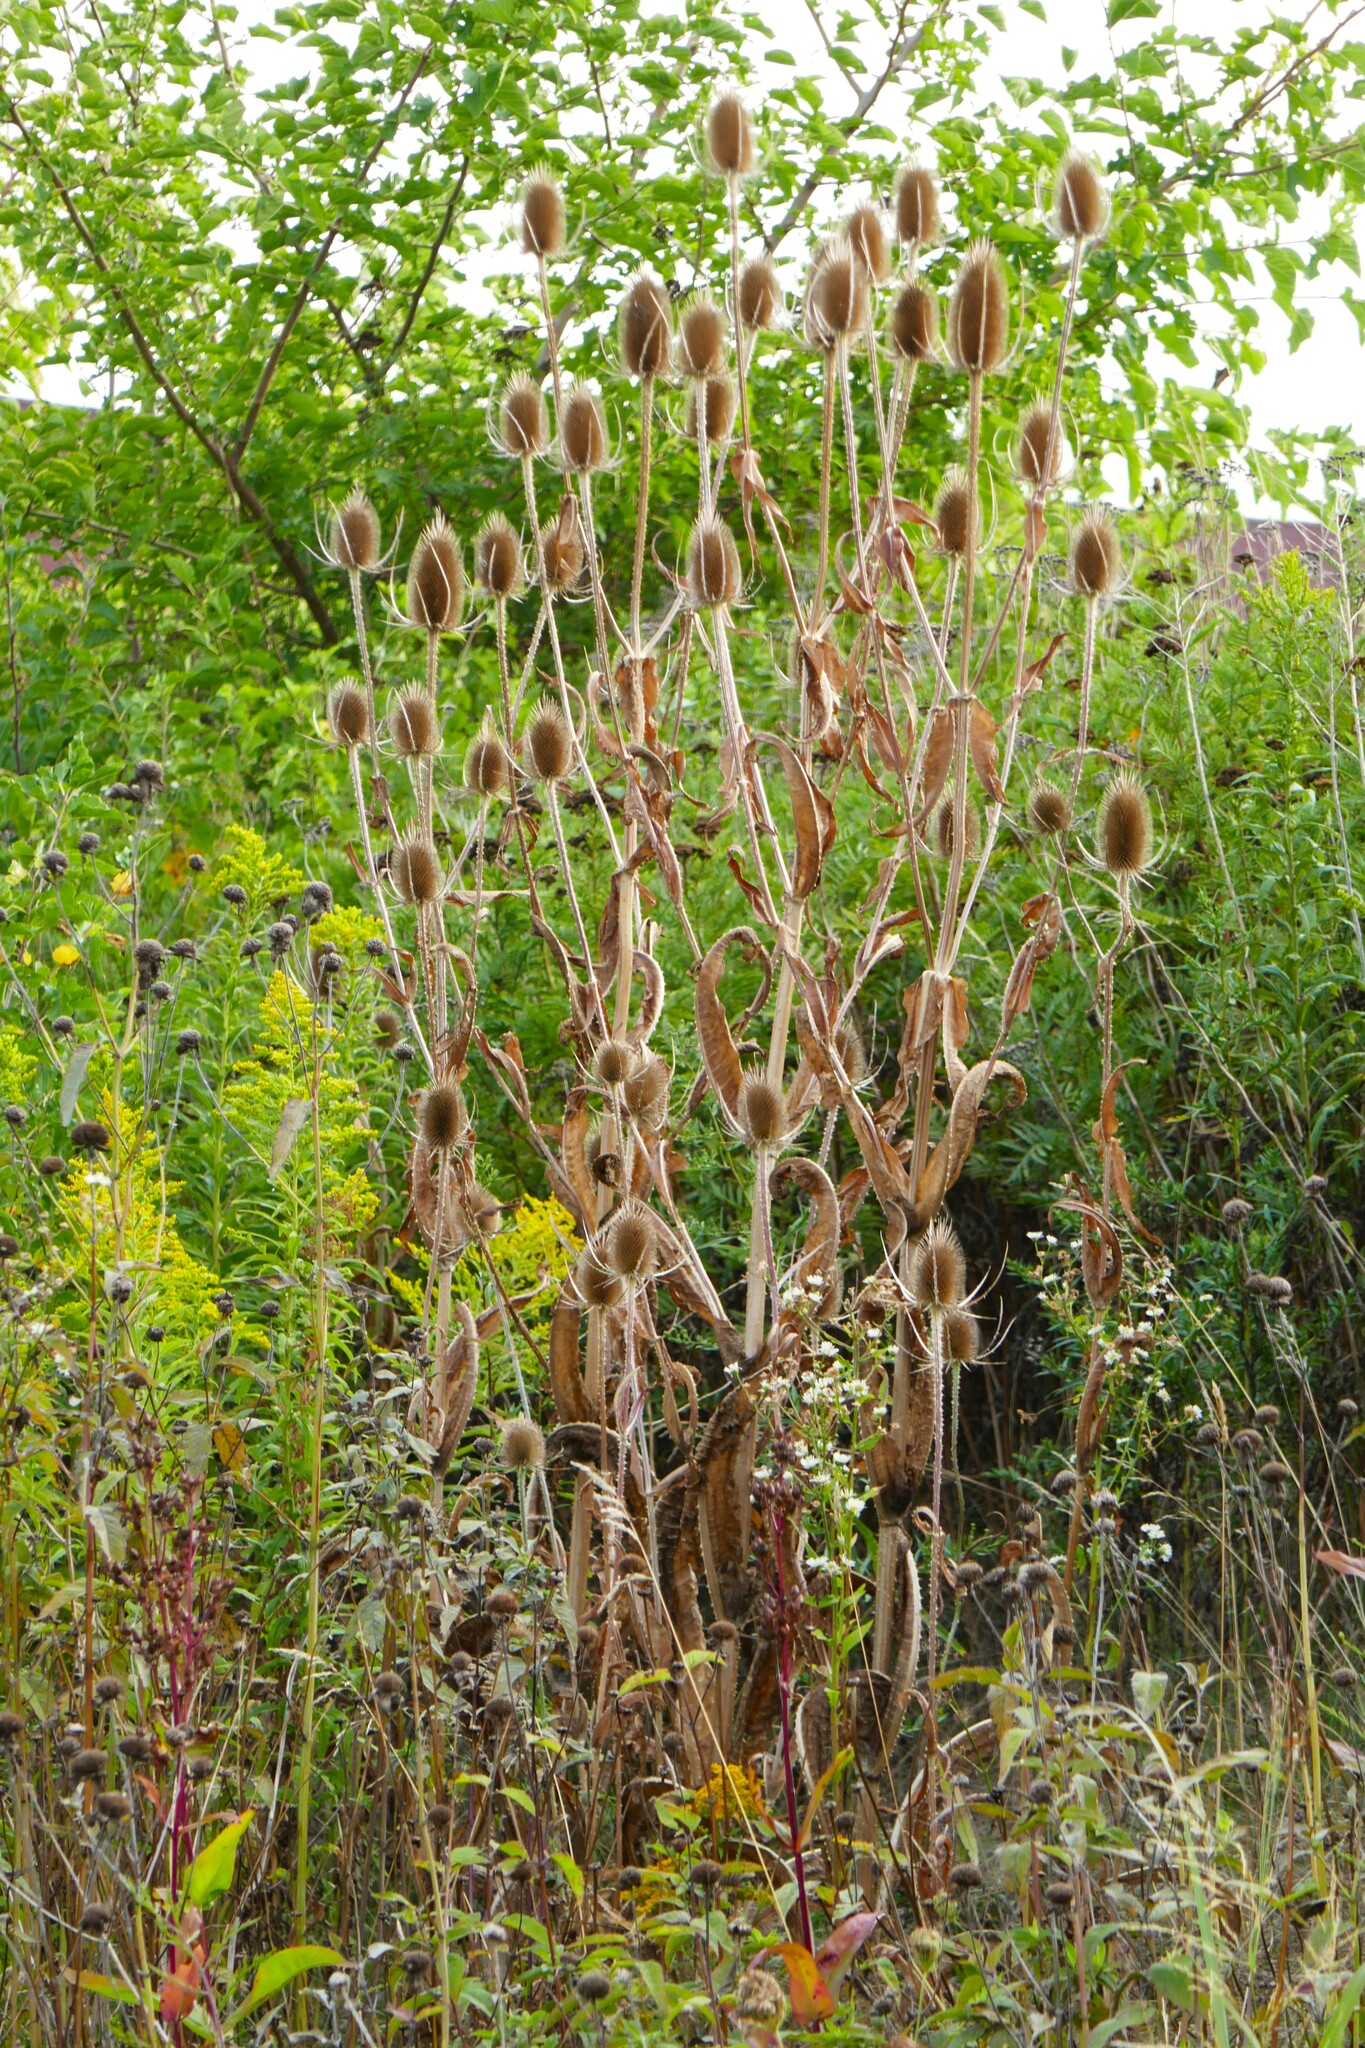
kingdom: Plantae
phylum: Tracheophyta
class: Magnoliopsida
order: Dipsacales
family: Caprifoliaceae
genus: Dipsacus
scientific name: Dipsacus fullonum
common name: Teasel
